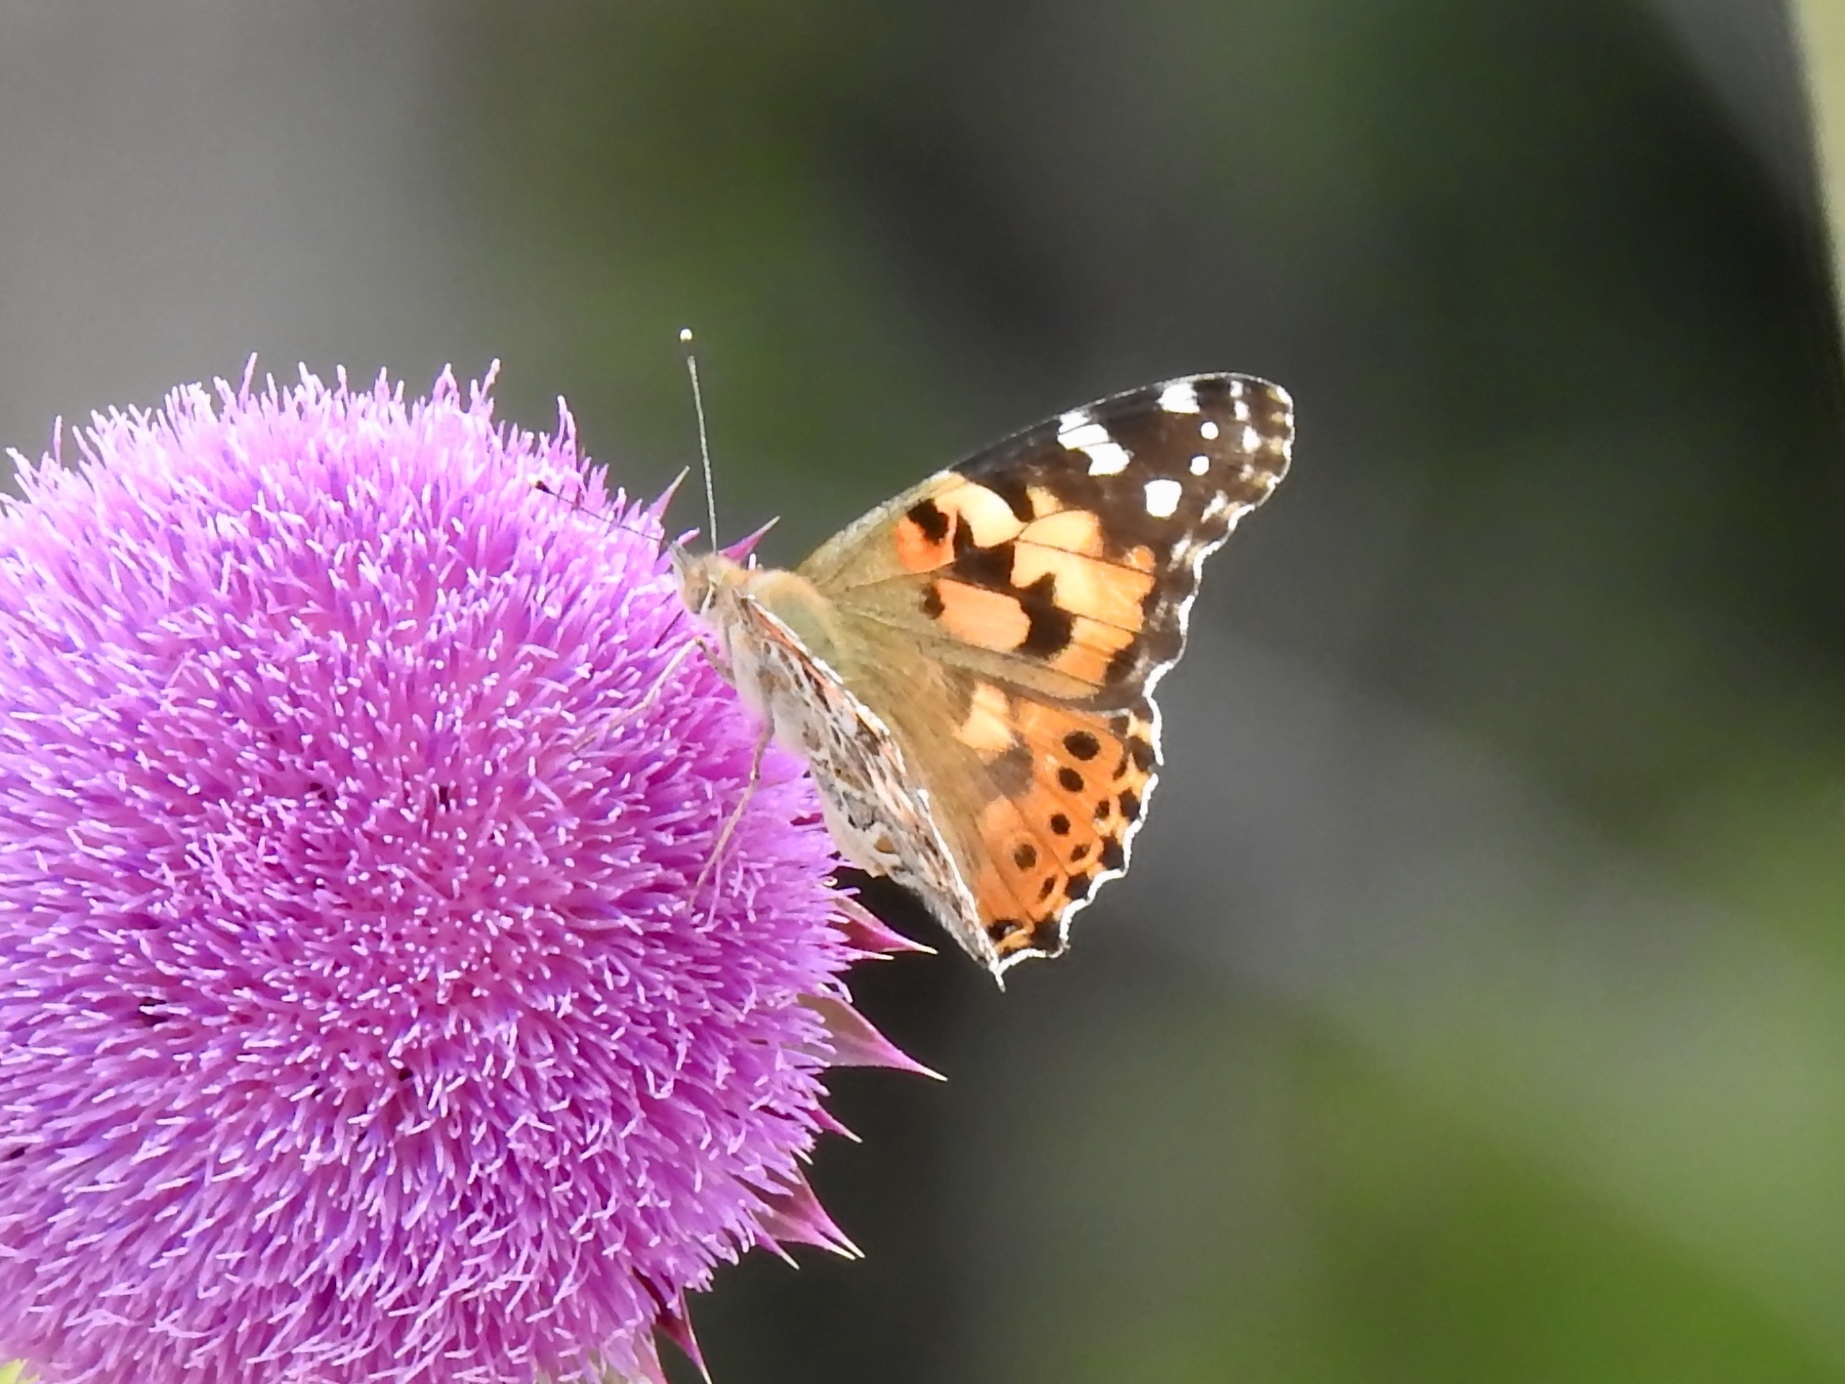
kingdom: Animalia
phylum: Arthropoda
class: Insecta
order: Lepidoptera
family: Nymphalidae
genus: Vanessa
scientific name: Vanessa cardui
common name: Painted lady
